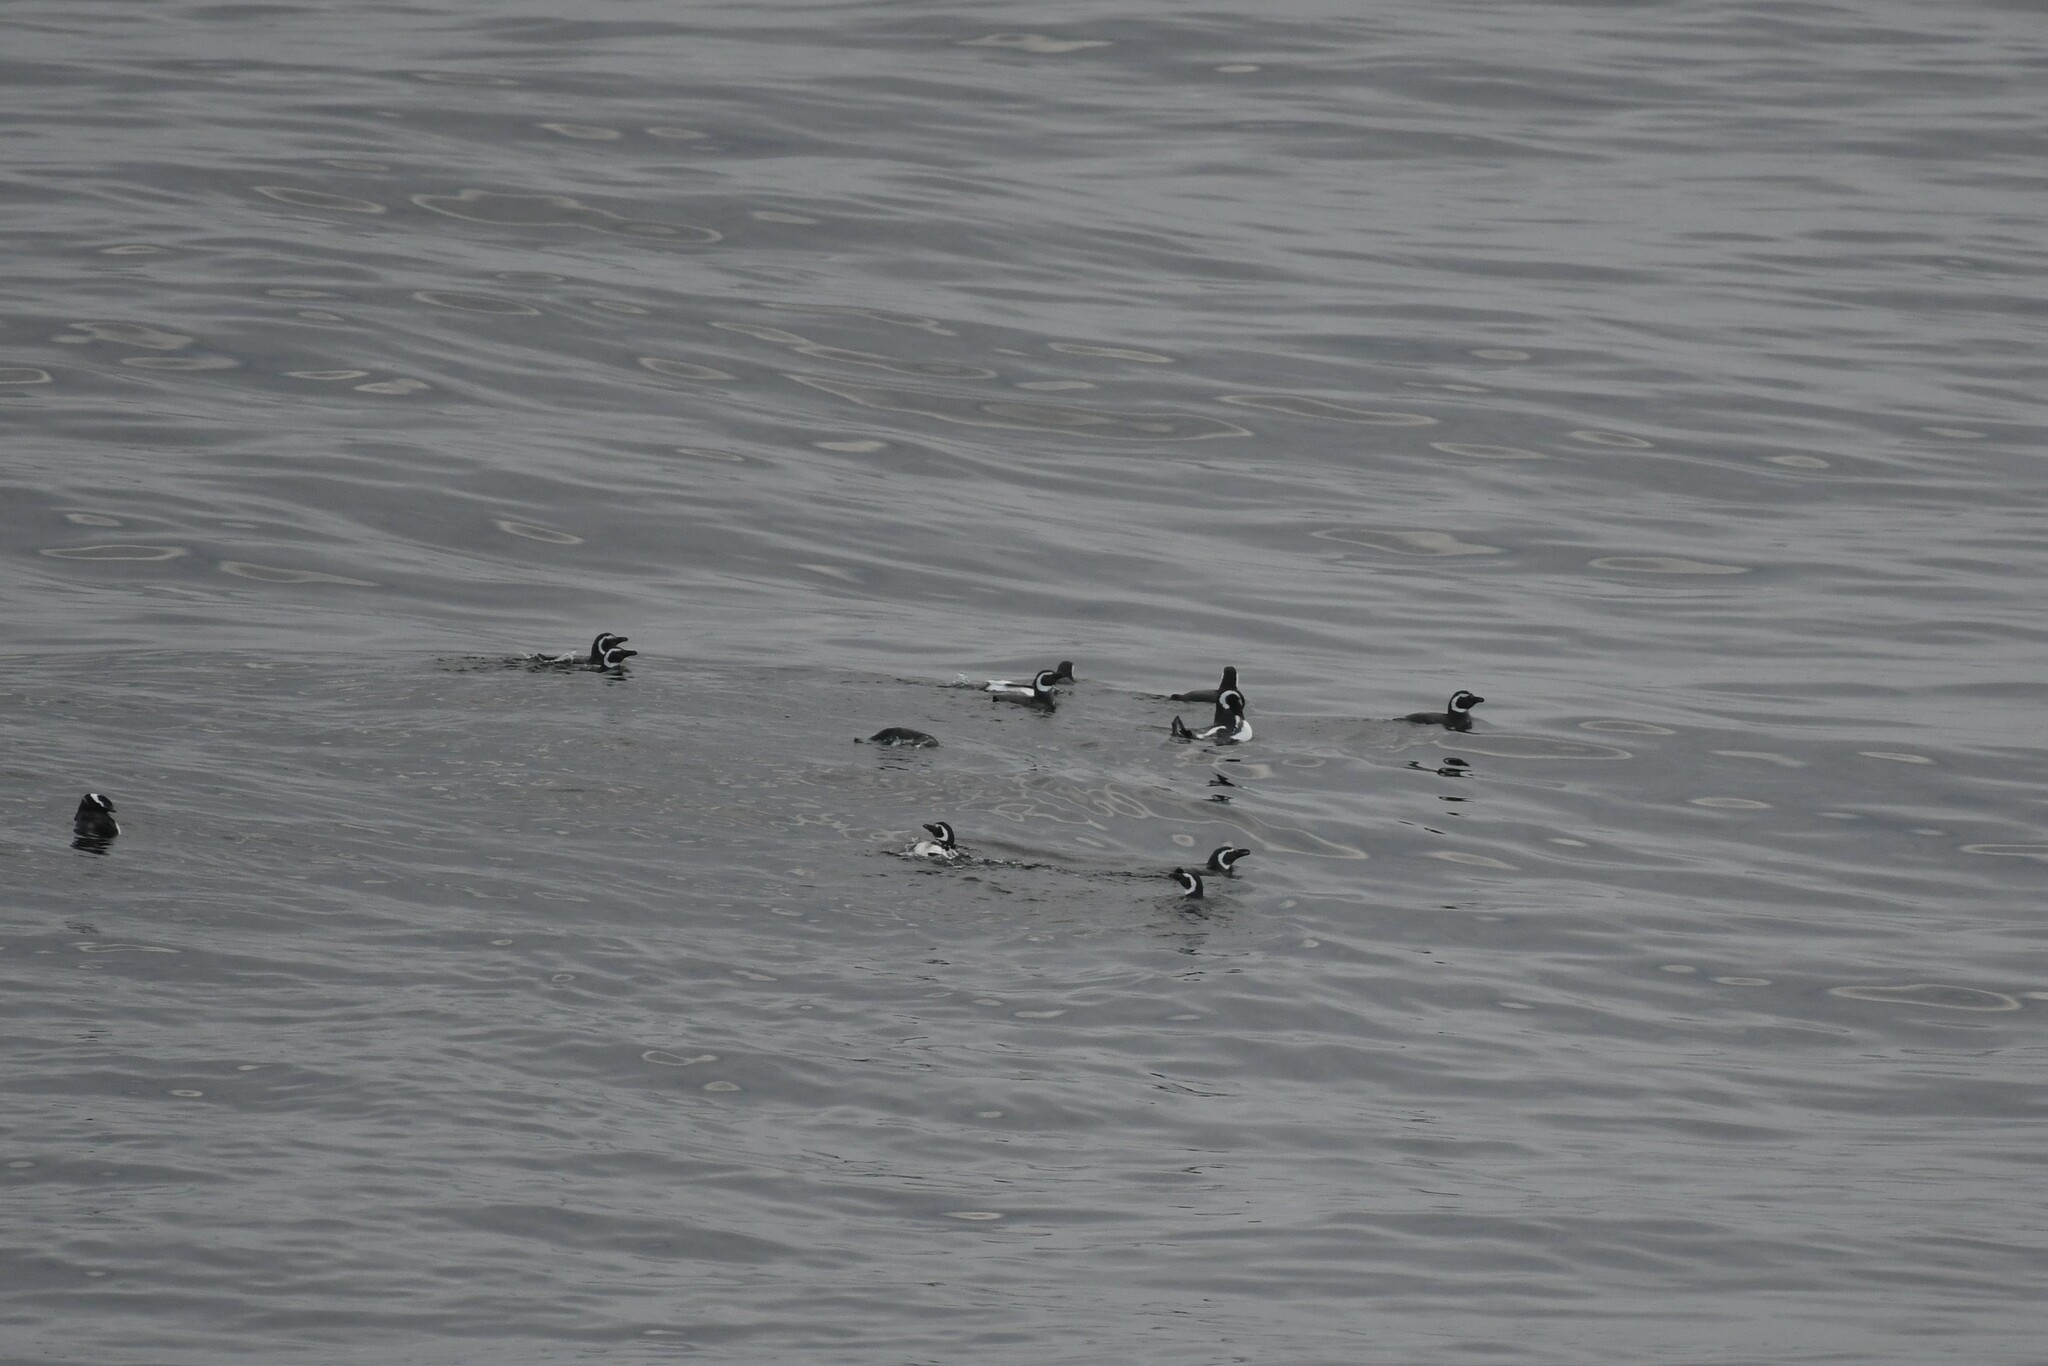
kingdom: Animalia
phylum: Chordata
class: Aves
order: Sphenisciformes
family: Spheniscidae
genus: Spheniscus
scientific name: Spheniscus magellanicus
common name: Magellanic penguin
